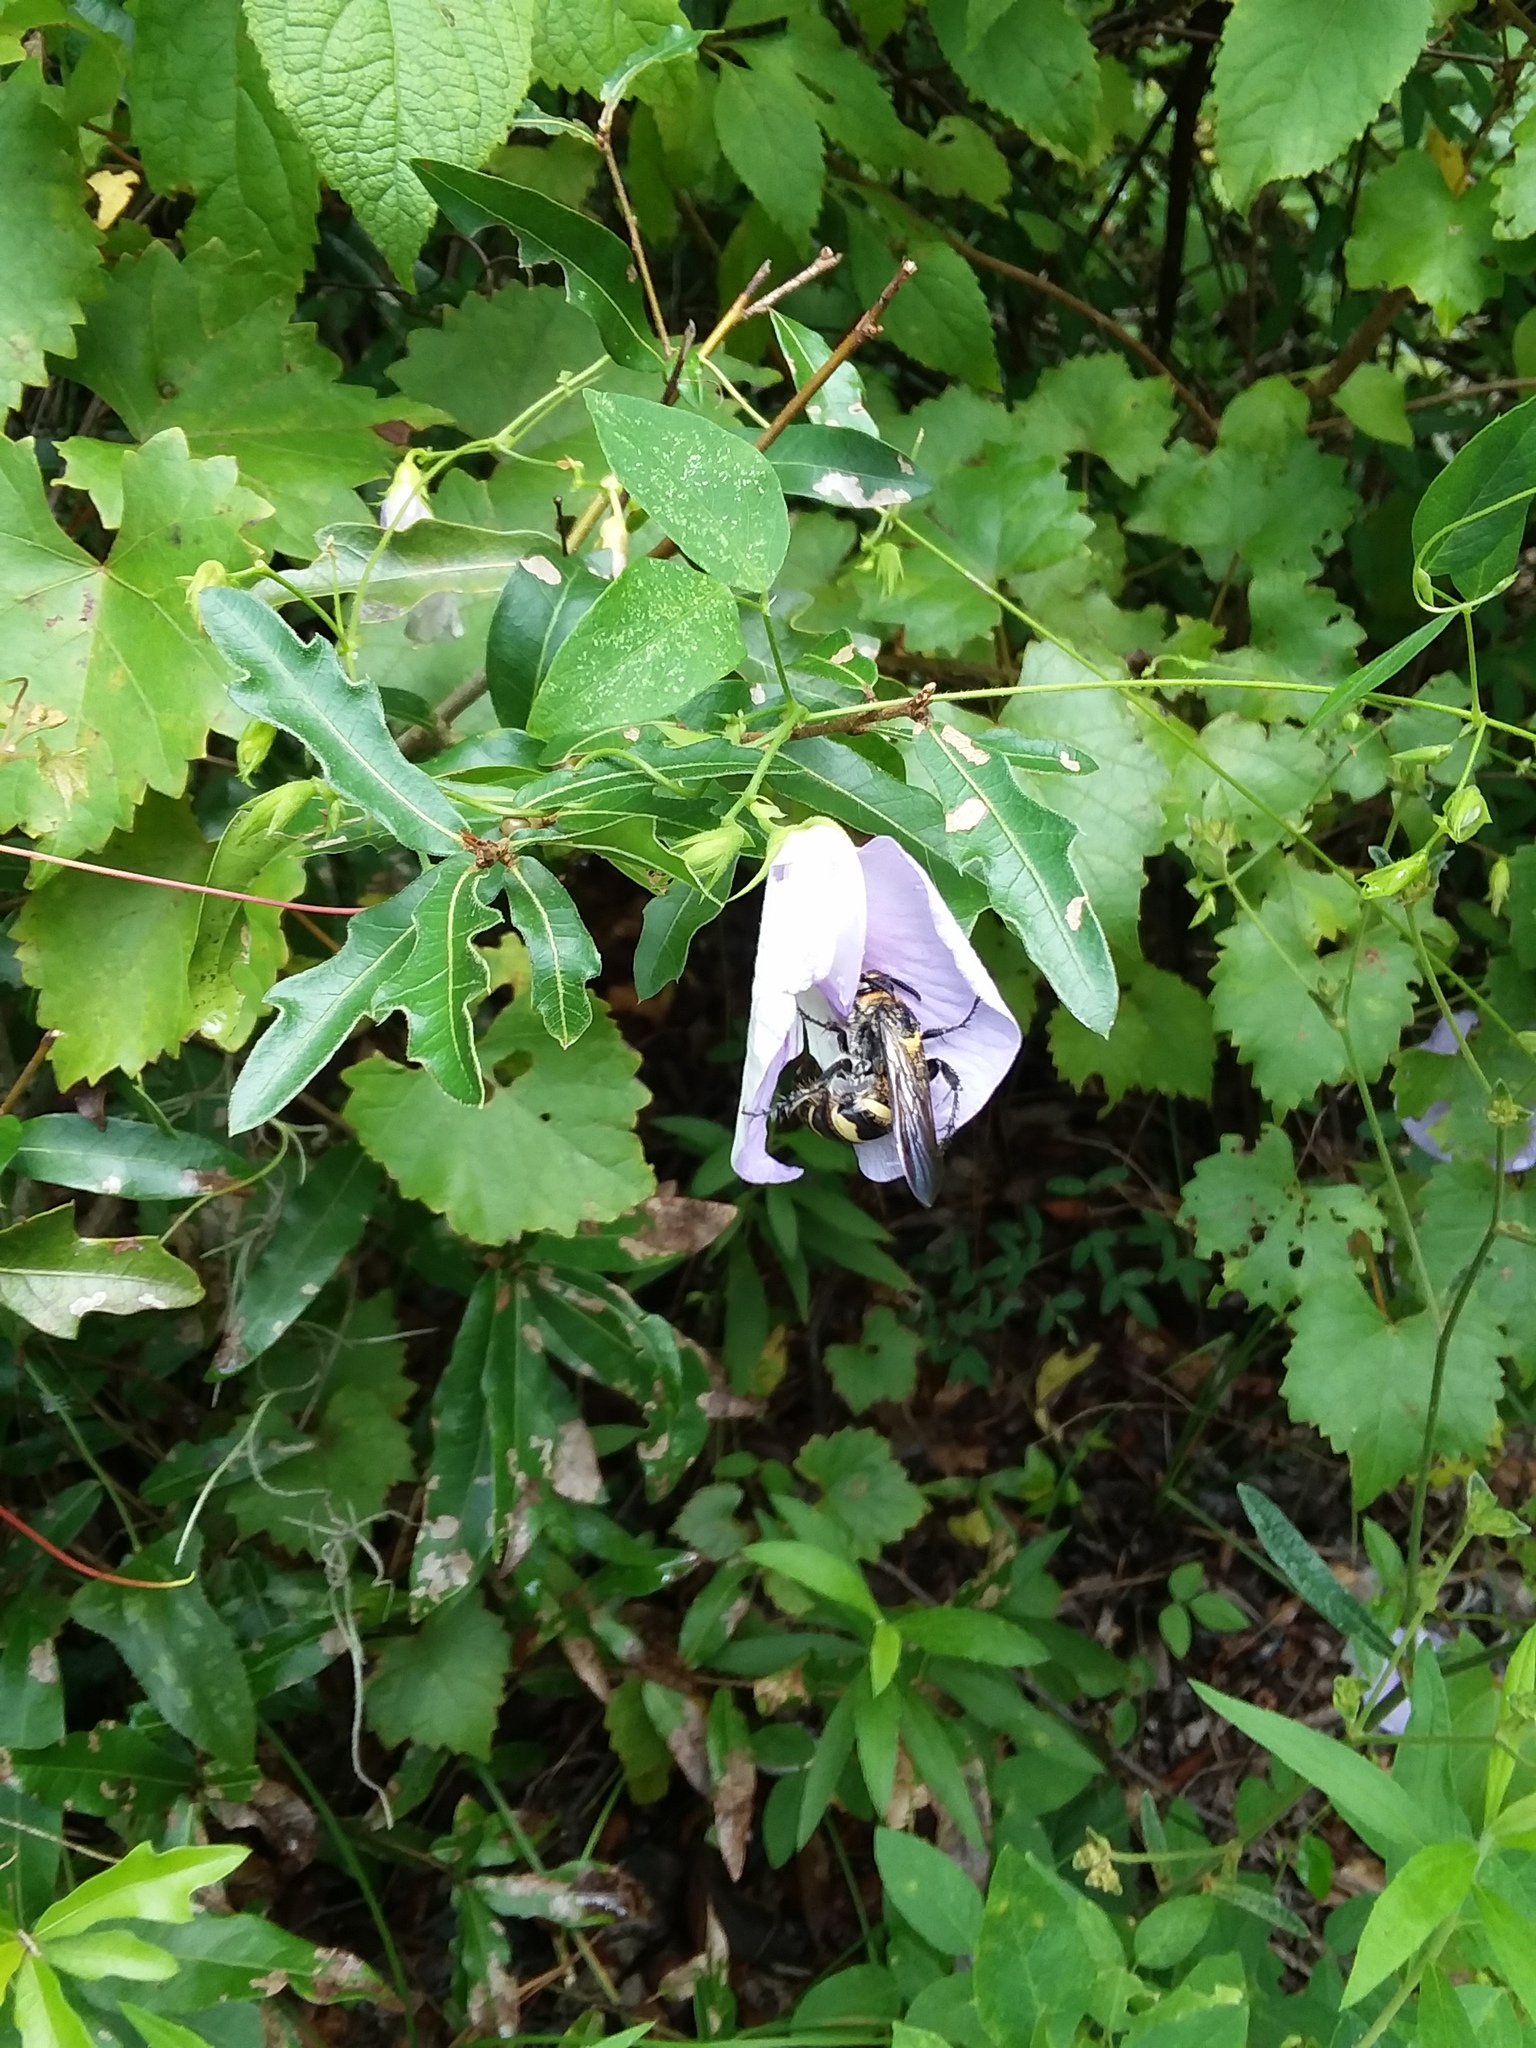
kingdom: Plantae
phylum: Tracheophyta
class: Magnoliopsida
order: Fabales
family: Fabaceae
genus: Centrosema
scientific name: Centrosema virginianum
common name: Butterfly-pea
